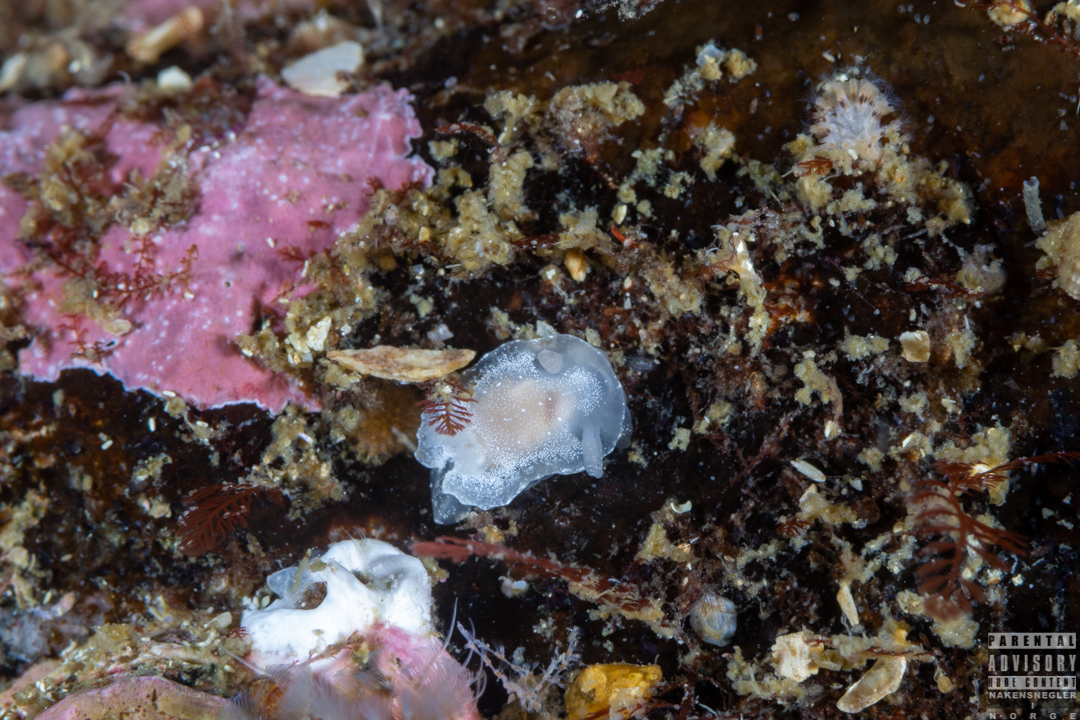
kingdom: Animalia
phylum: Mollusca
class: Gastropoda
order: Nudibranchia
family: Goniodorididae
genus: Okenia
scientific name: Okenia
